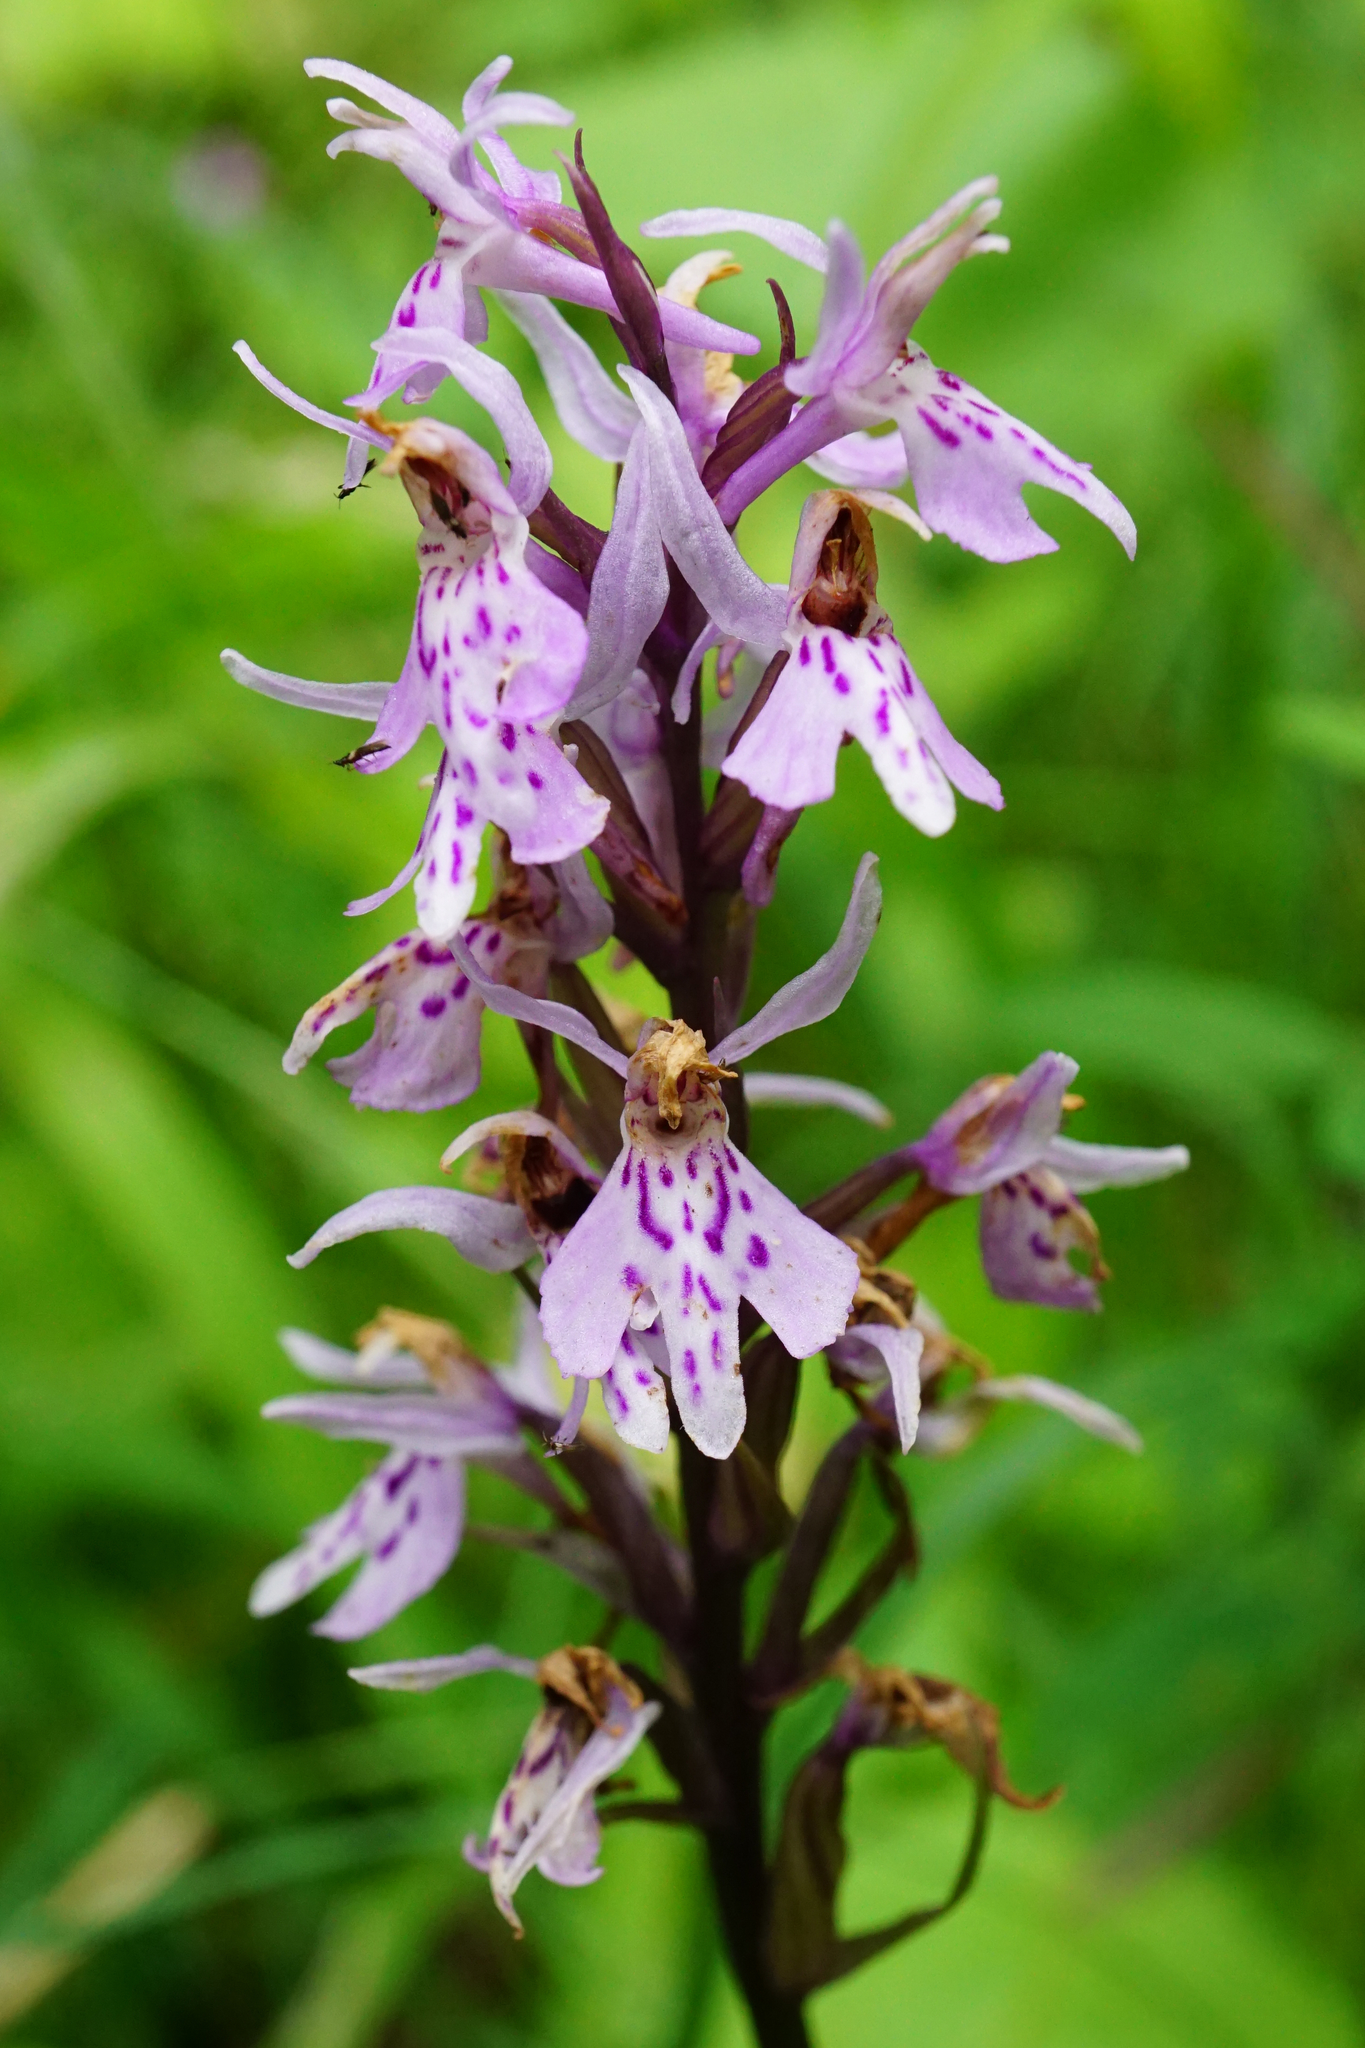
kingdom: Plantae
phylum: Tracheophyta
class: Liliopsida
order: Asparagales
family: Orchidaceae
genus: Dactylorhiza
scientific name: Dactylorhiza maculata
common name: Heath spotted-orchid
